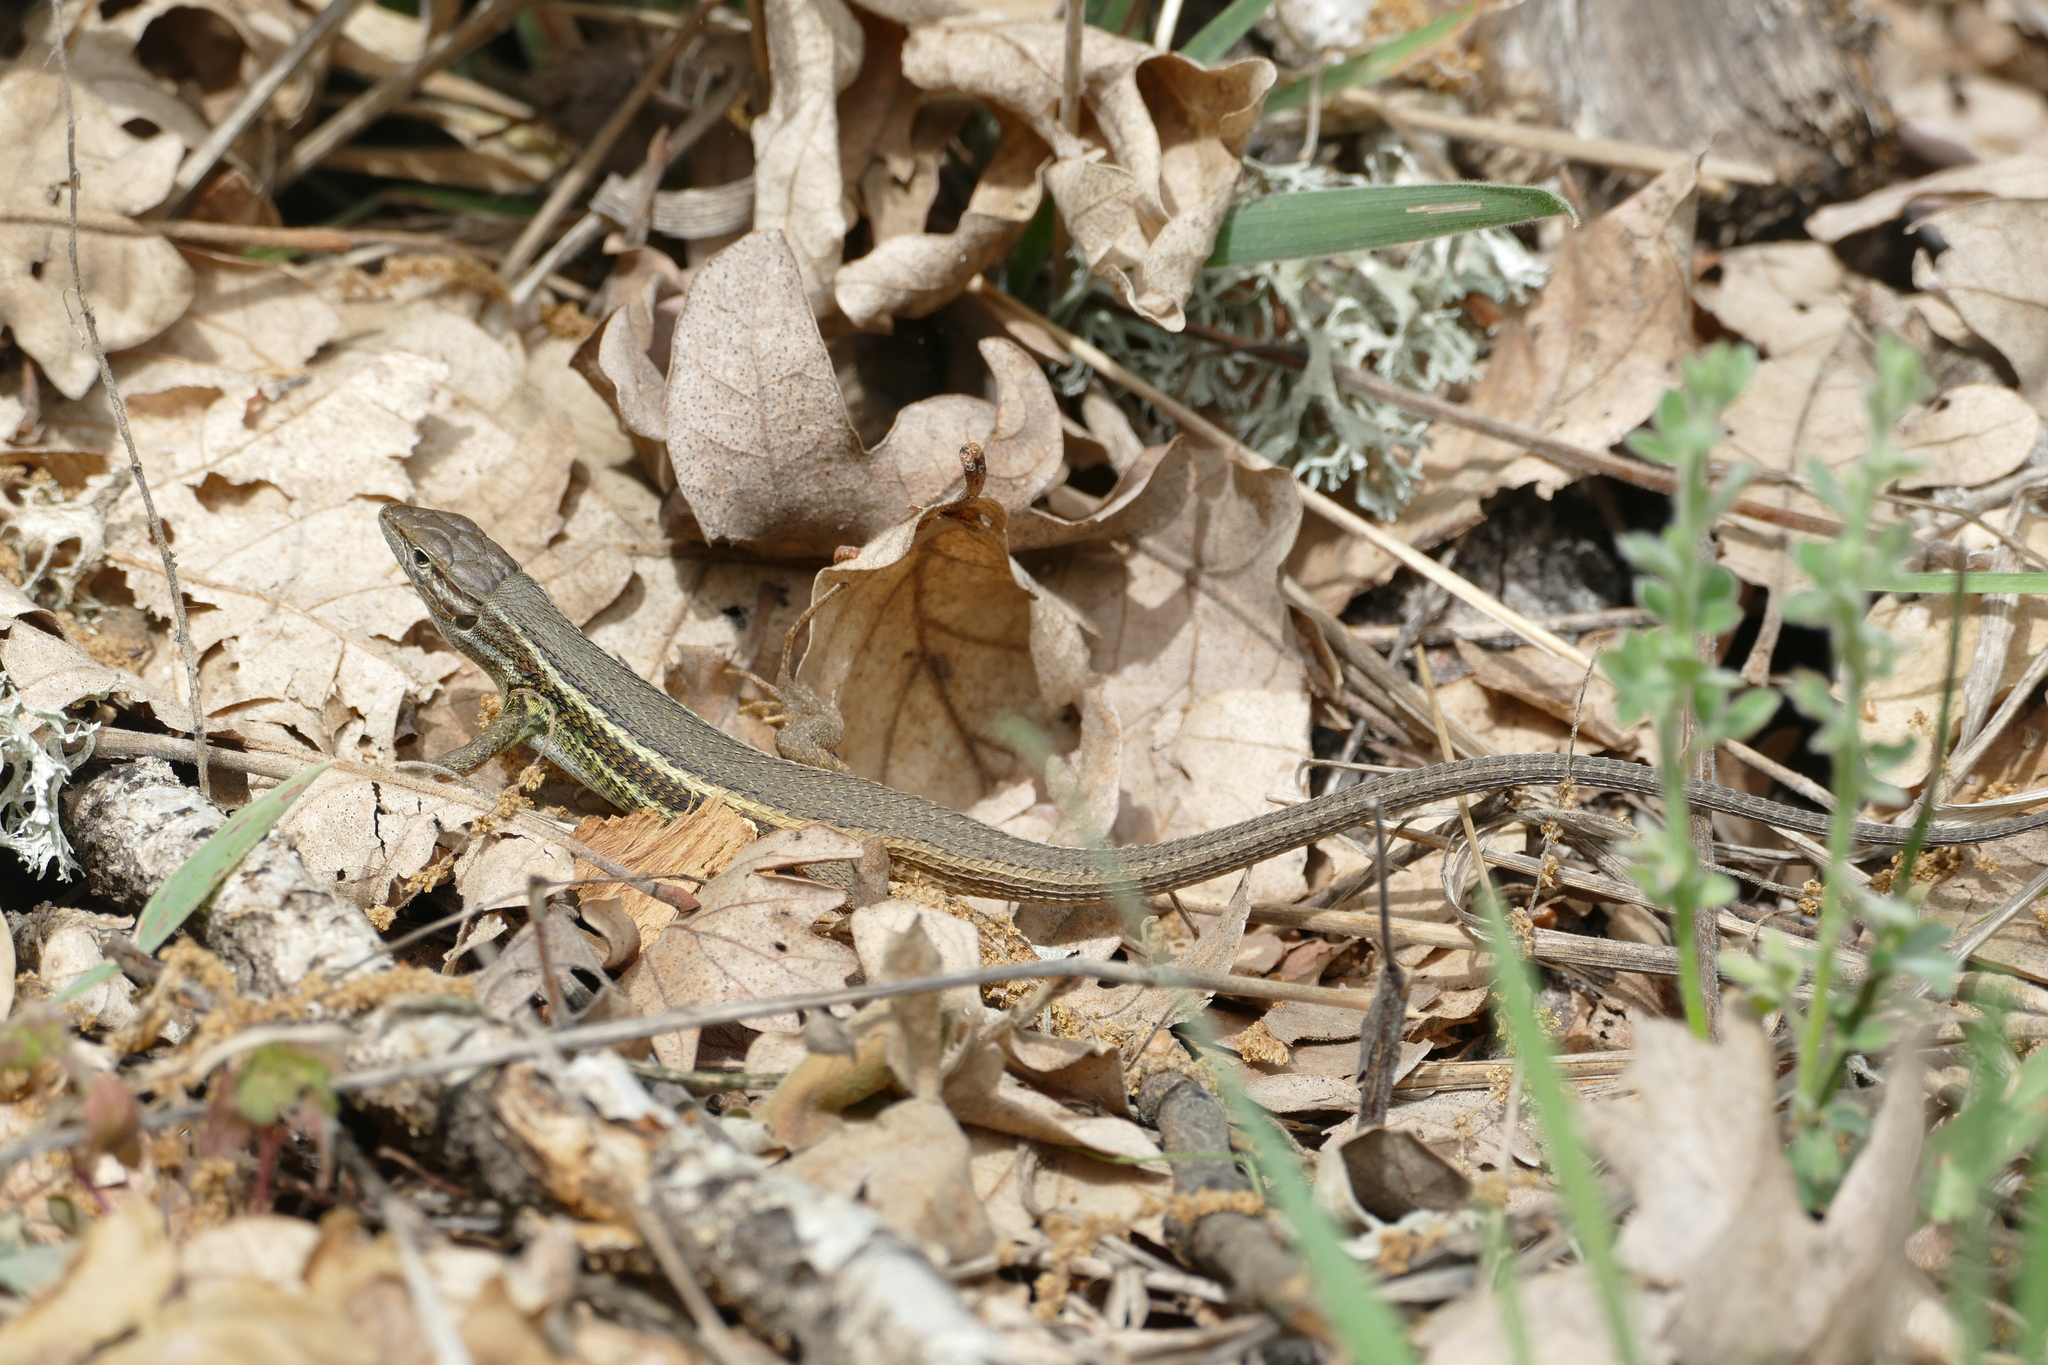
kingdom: Animalia
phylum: Chordata
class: Squamata
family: Lacertidae
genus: Psammodromus
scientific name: Psammodromus algirus
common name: Algerian psammodromus
